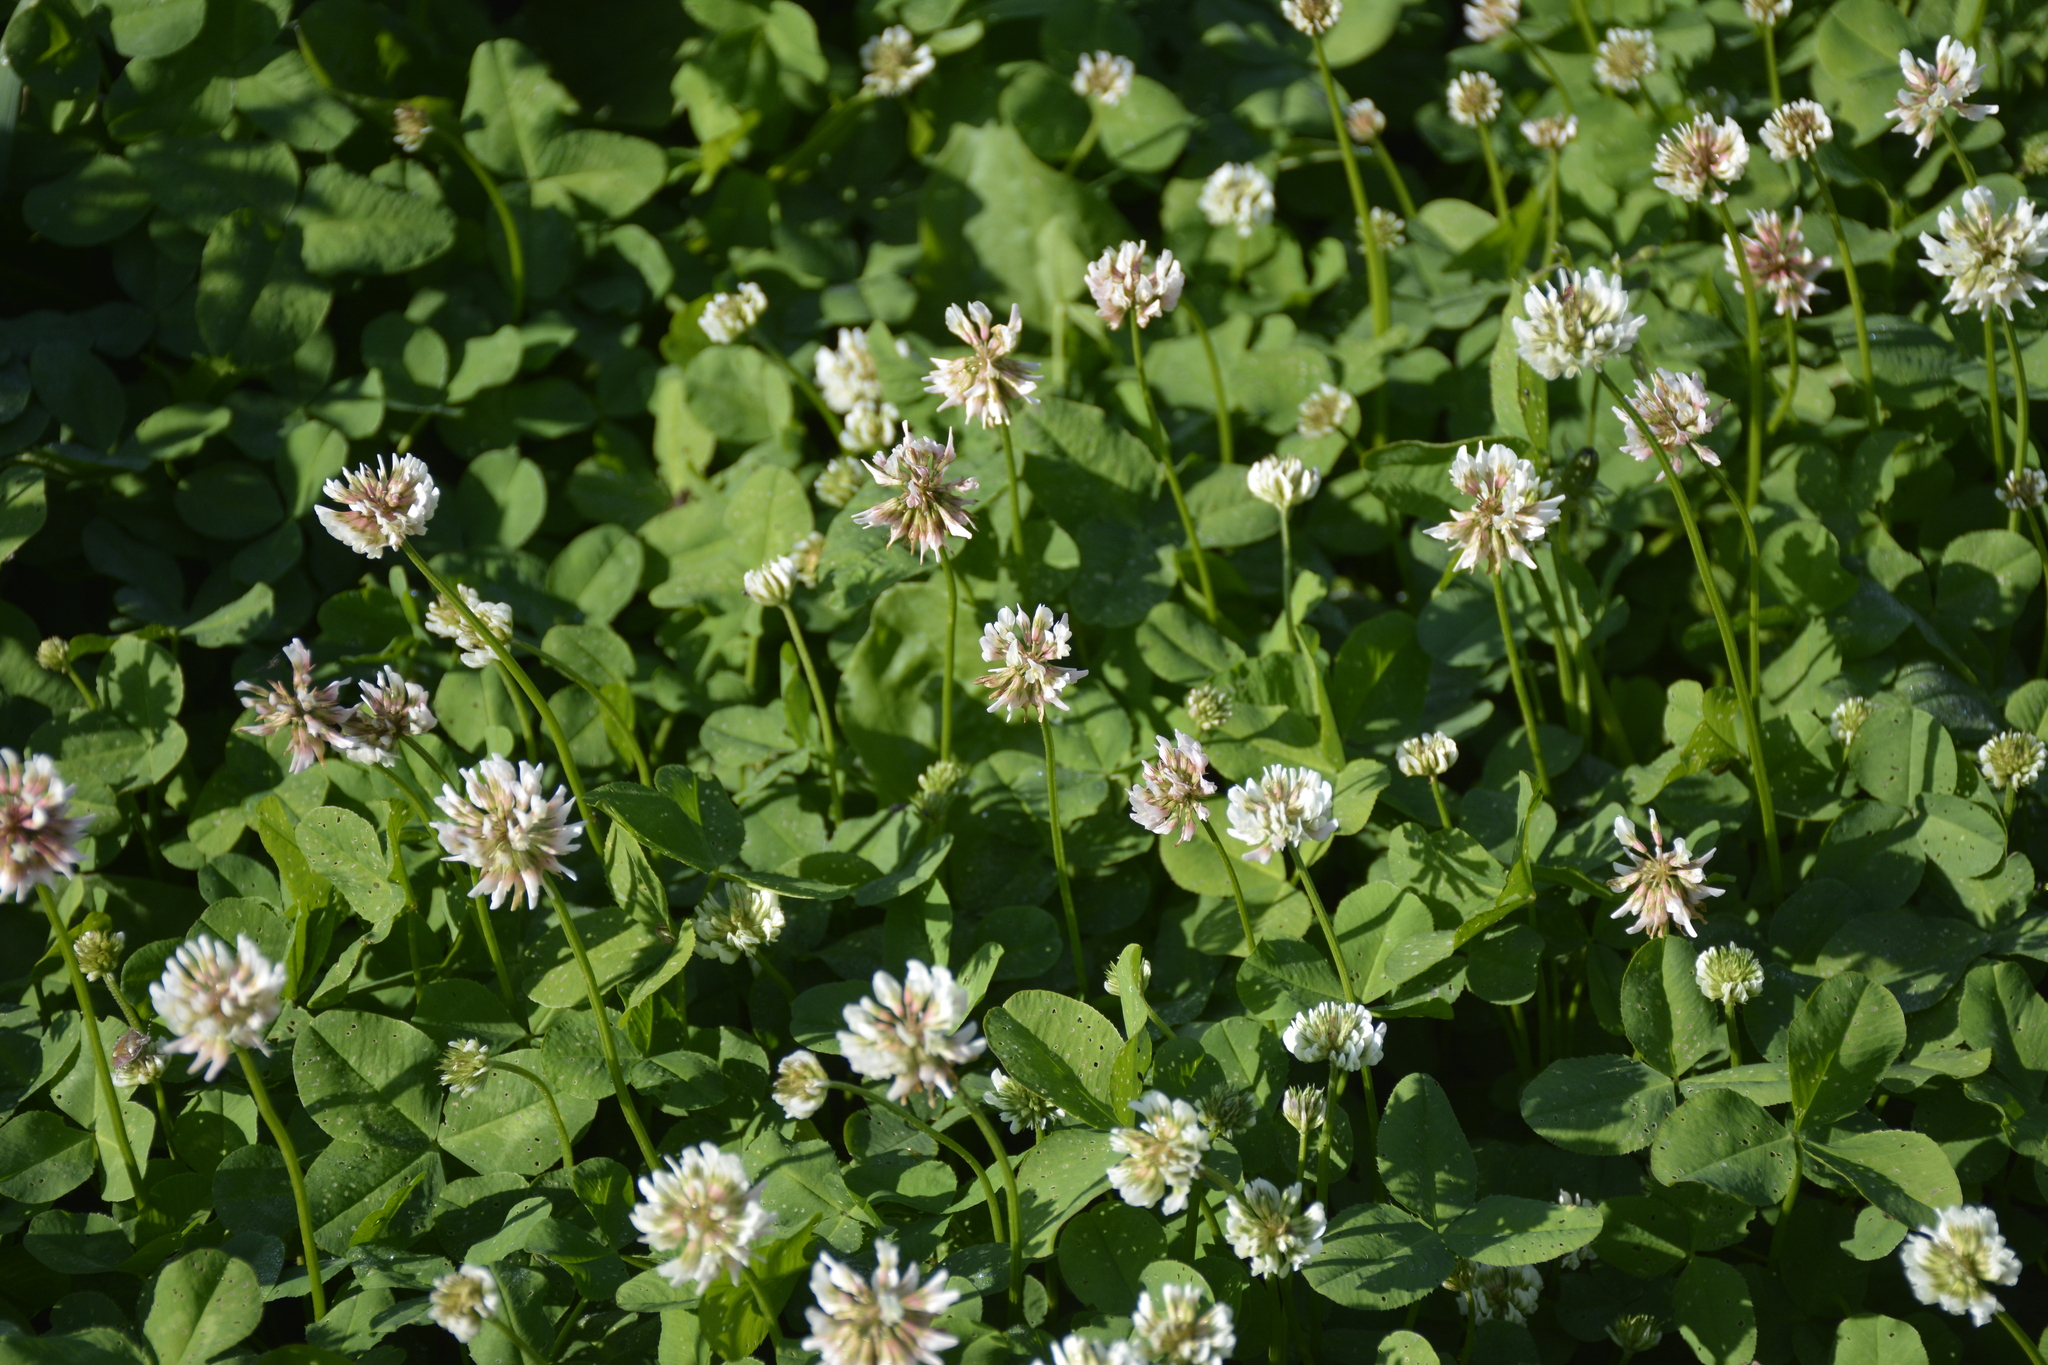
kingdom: Plantae
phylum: Tracheophyta
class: Magnoliopsida
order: Fabales
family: Fabaceae
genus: Trifolium
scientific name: Trifolium repens
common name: White clover
